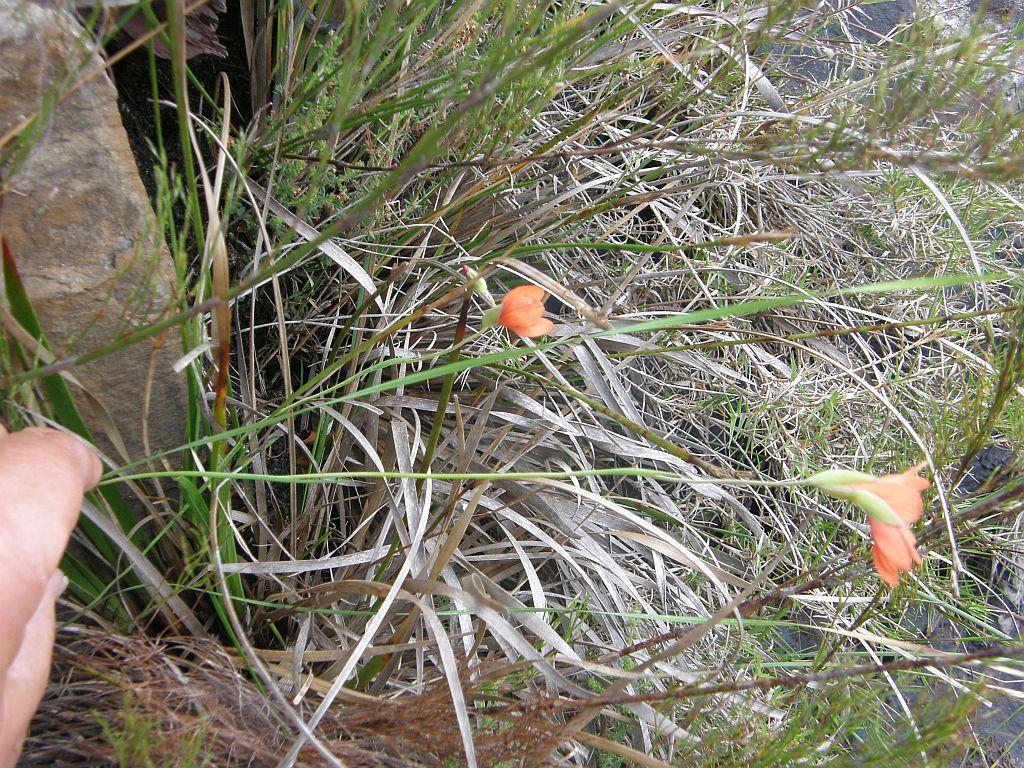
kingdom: Plantae
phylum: Tracheophyta
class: Liliopsida
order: Asparagales
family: Iridaceae
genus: Gladiolus
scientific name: Gladiolus brevitubus
